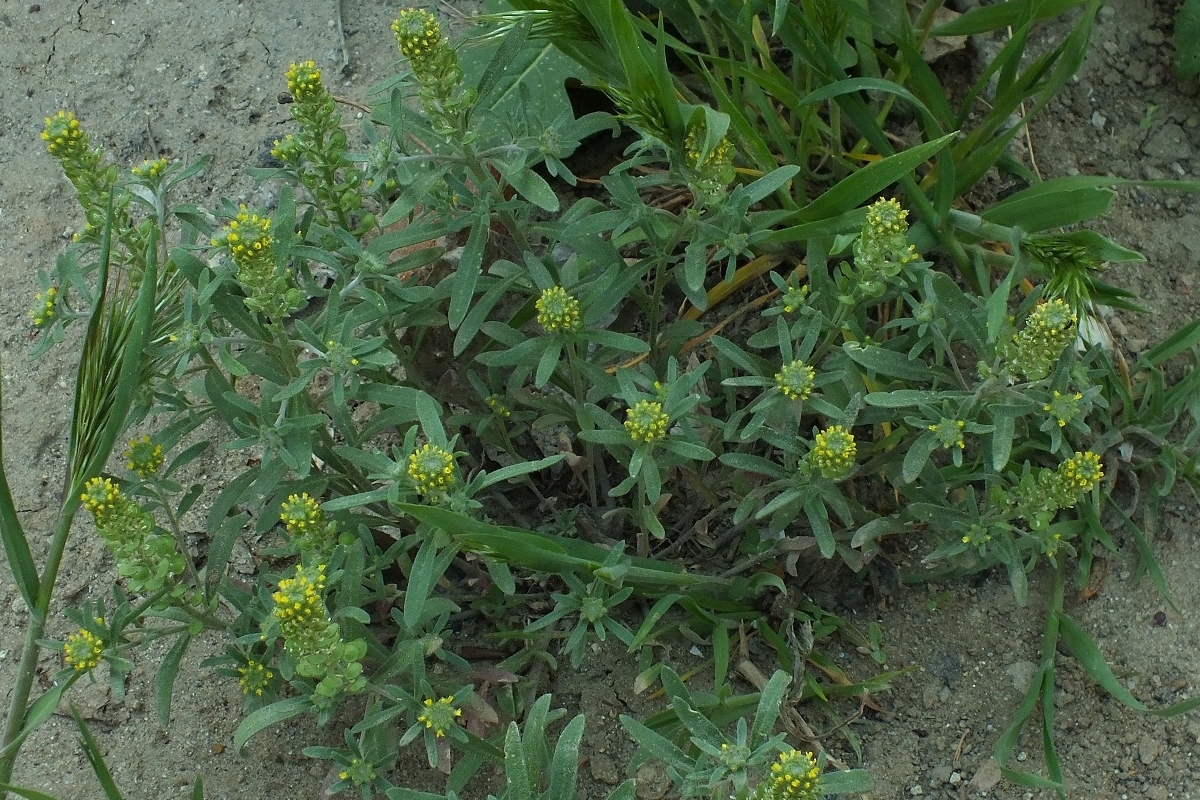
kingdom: Plantae
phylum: Tracheophyta
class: Magnoliopsida
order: Brassicales
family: Brassicaceae
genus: Alyssum
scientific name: Alyssum turkestanicum
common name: Desert alyssum
